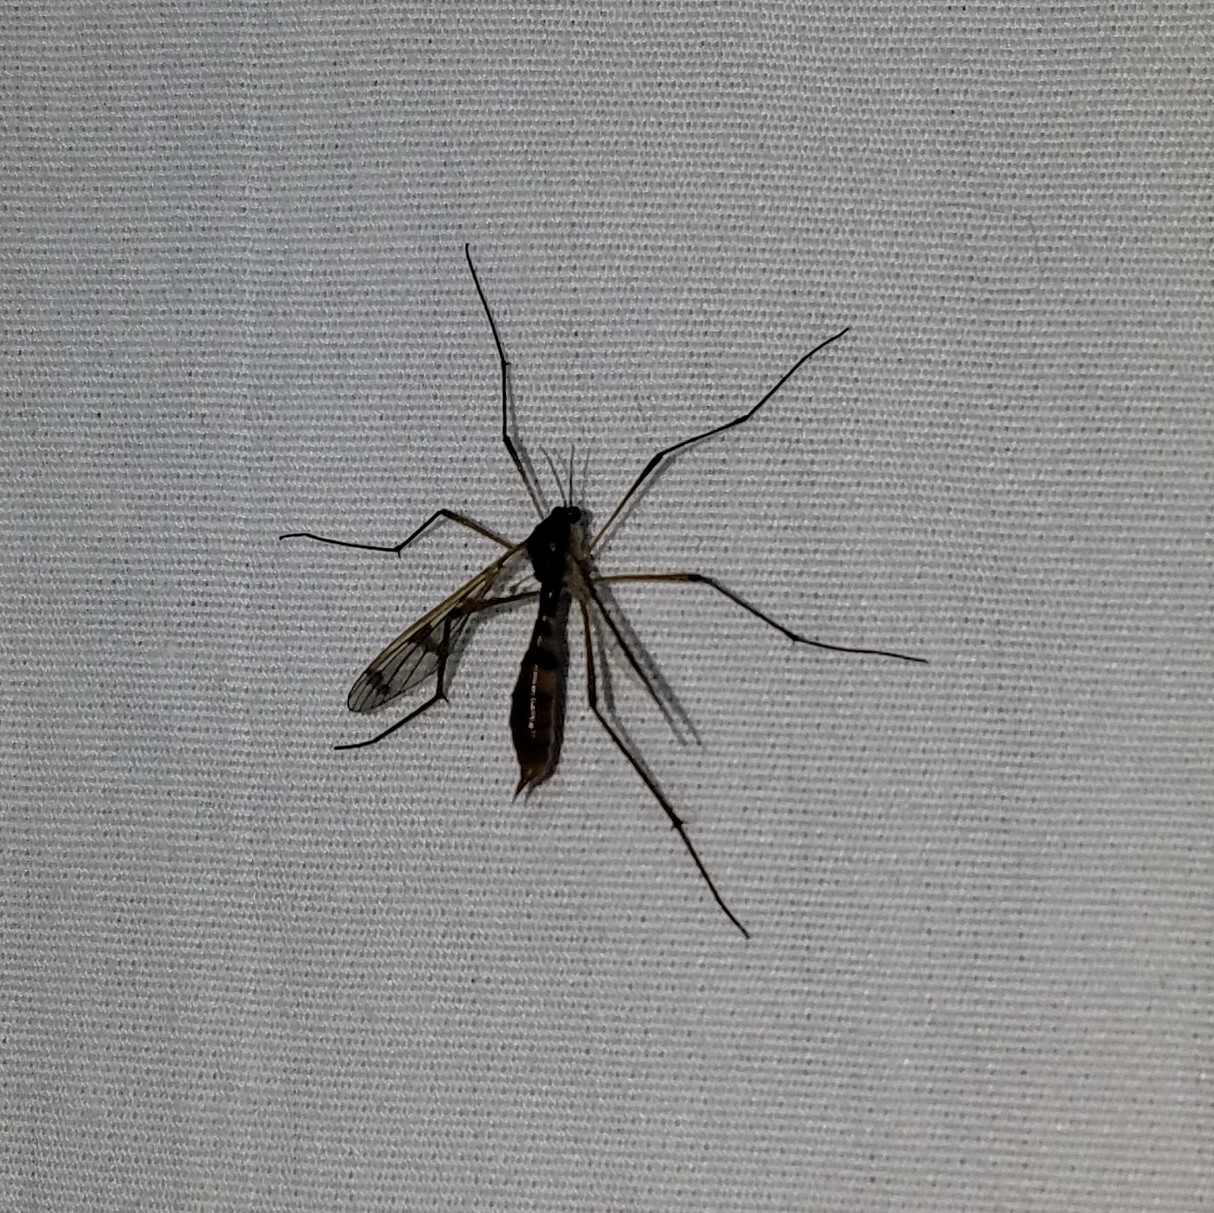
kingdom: Animalia
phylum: Arthropoda
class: Insecta
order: Diptera
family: Ptychopteridae
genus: Ptychoptera
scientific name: Ptychoptera
